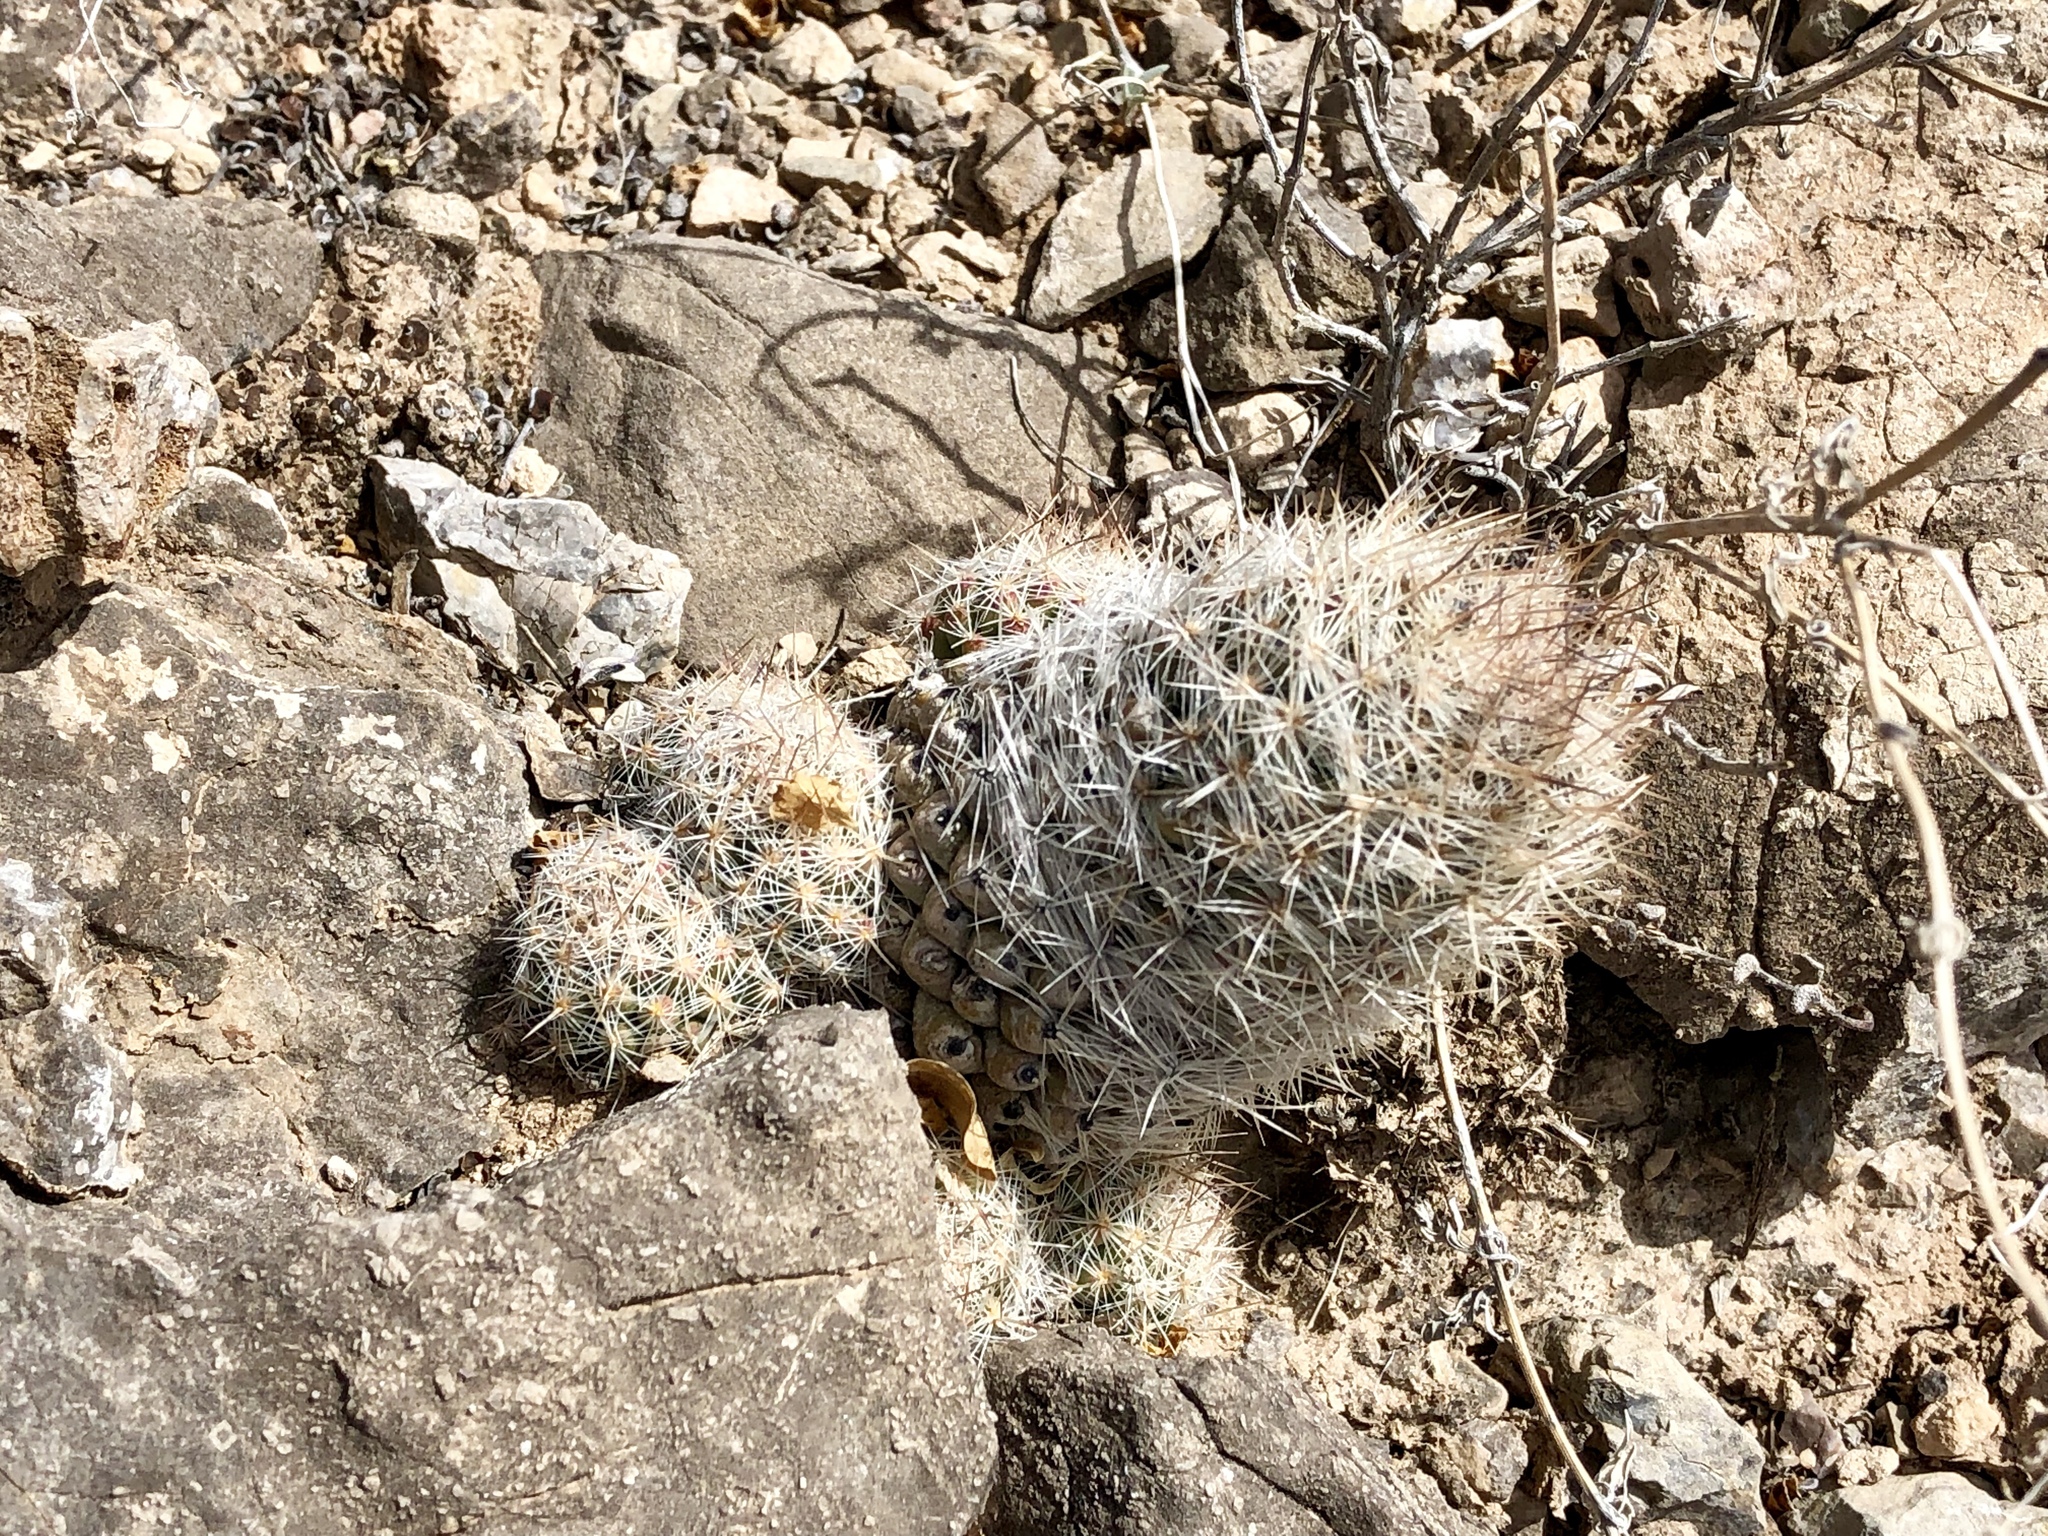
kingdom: Plantae
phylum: Tracheophyta
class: Magnoliopsida
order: Caryophyllales
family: Cactaceae
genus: Pelecyphora
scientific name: Pelecyphora tuberculosa
